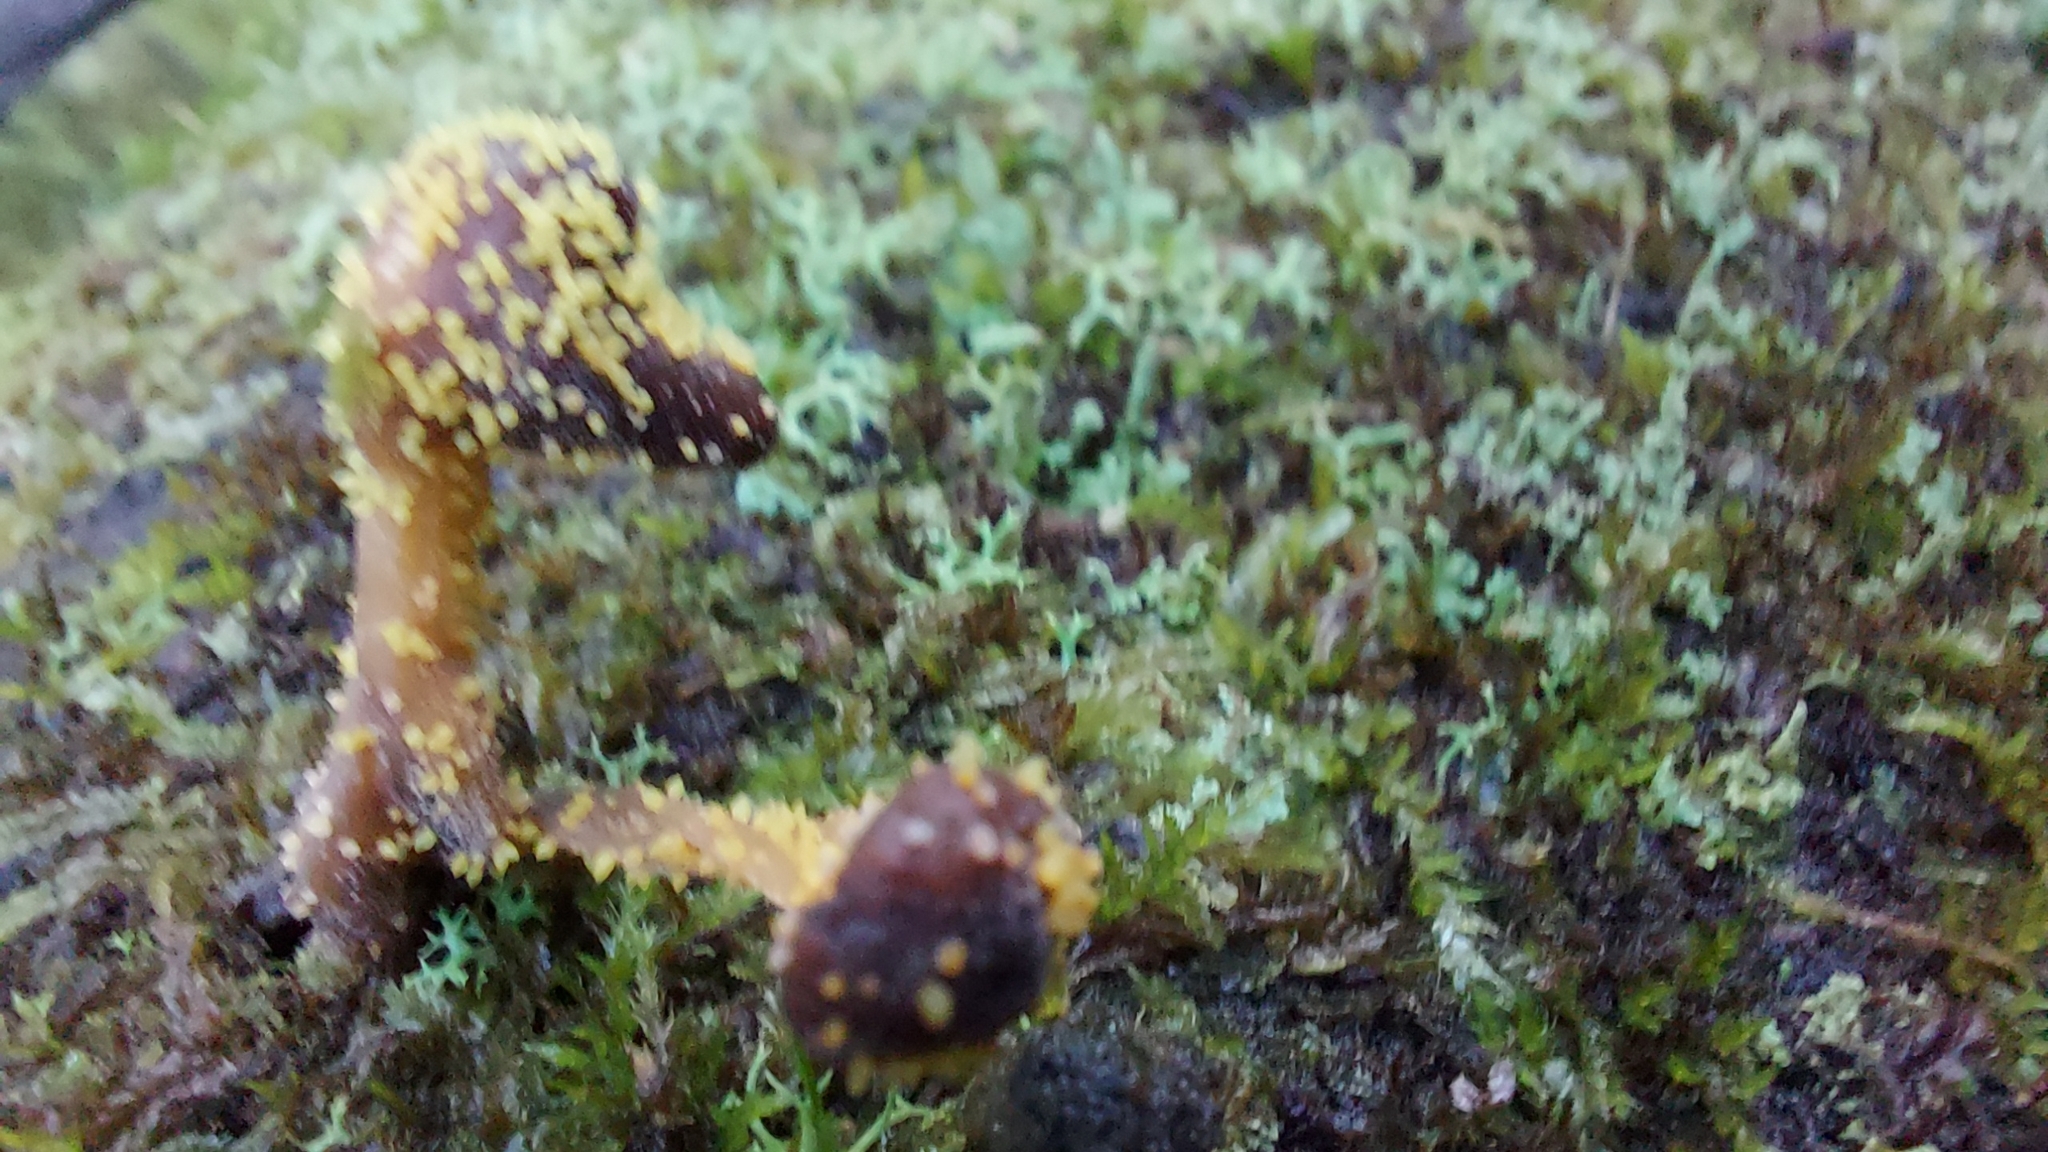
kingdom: Fungi
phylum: Ascomycota
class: Sordariomycetes
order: Hypocreales
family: Clavicipitaceae
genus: Neobarya
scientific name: Neobarya agaricicola
